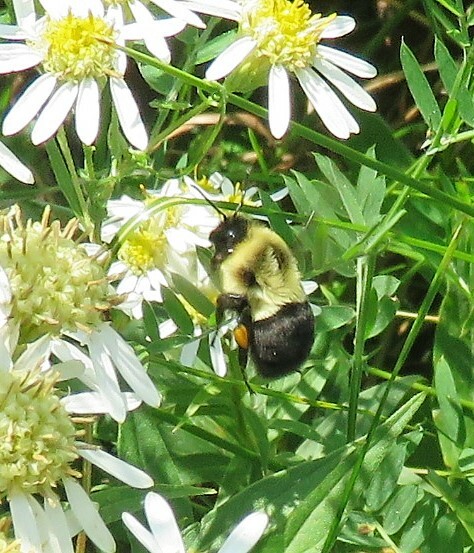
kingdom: Animalia
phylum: Arthropoda
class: Insecta
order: Hymenoptera
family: Apidae
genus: Bombus
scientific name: Bombus impatiens
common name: Common eastern bumble bee
